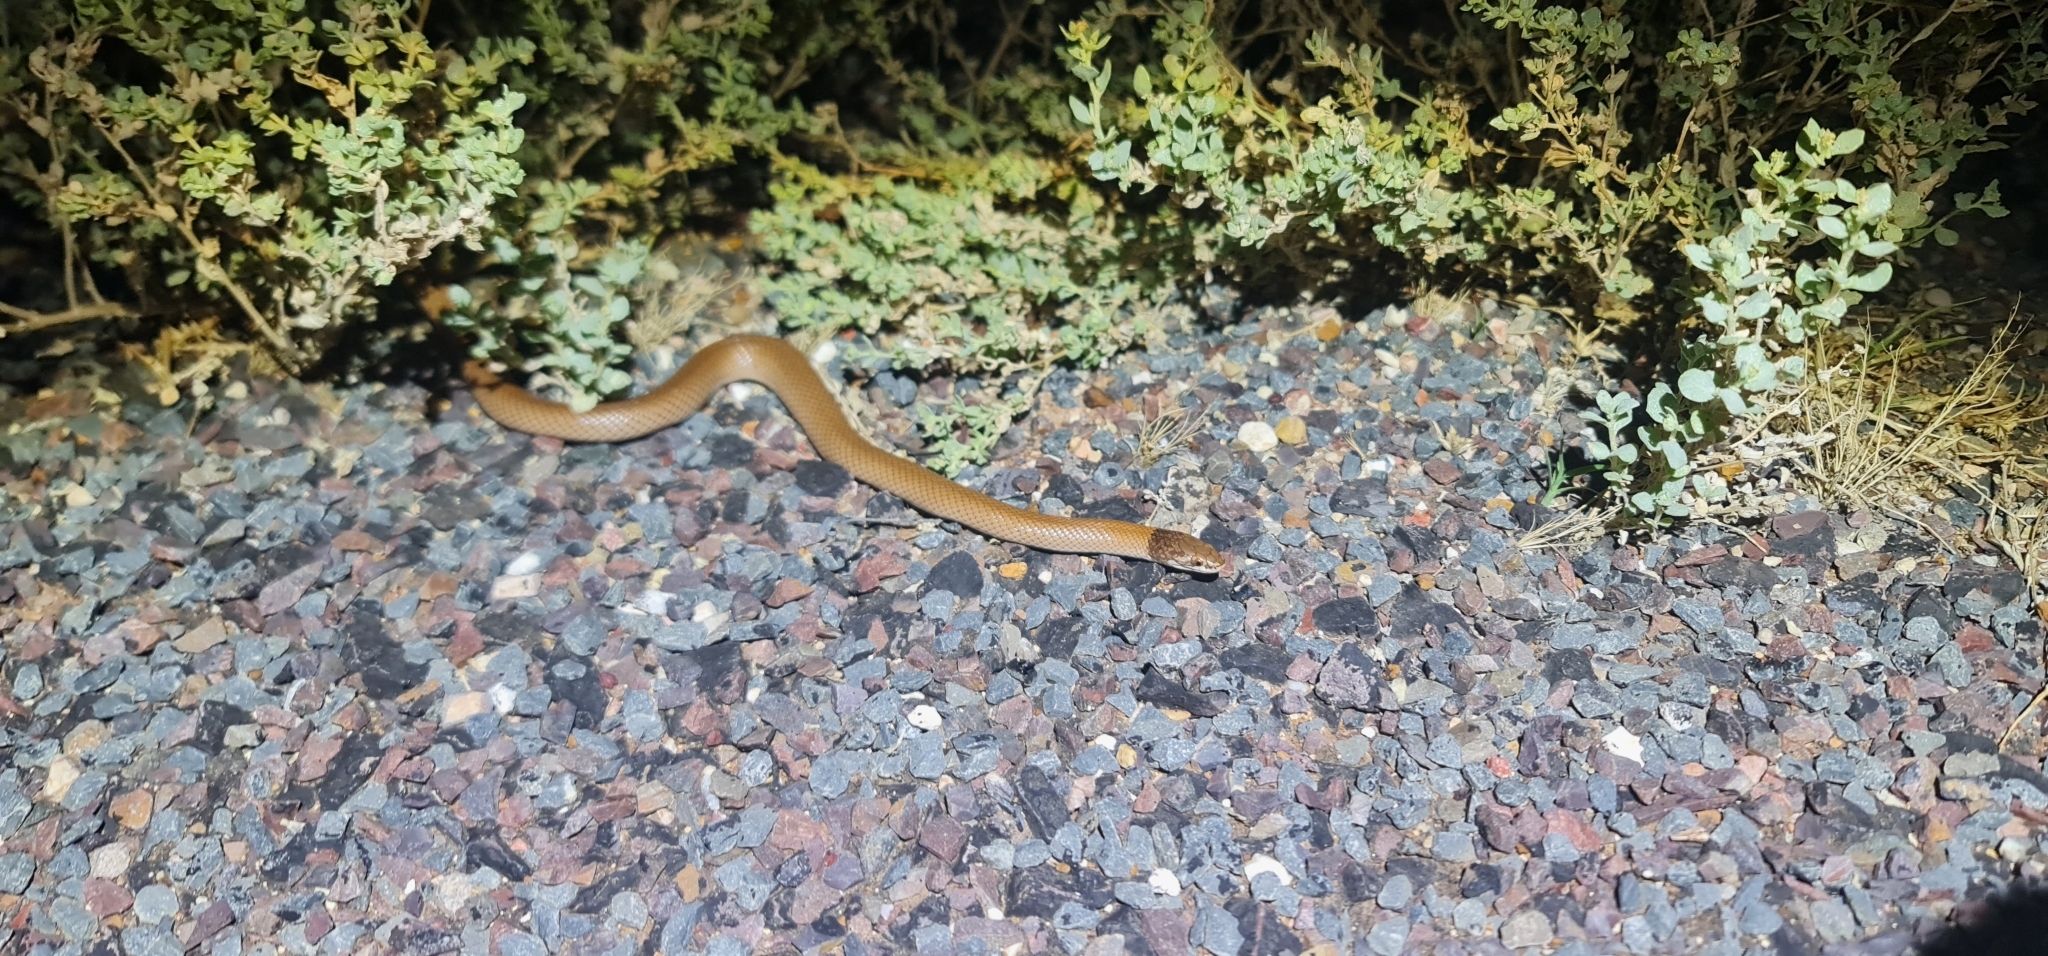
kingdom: Animalia
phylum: Chordata
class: Squamata
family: Elapidae
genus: Suta
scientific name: Suta suta
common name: Curl snake
